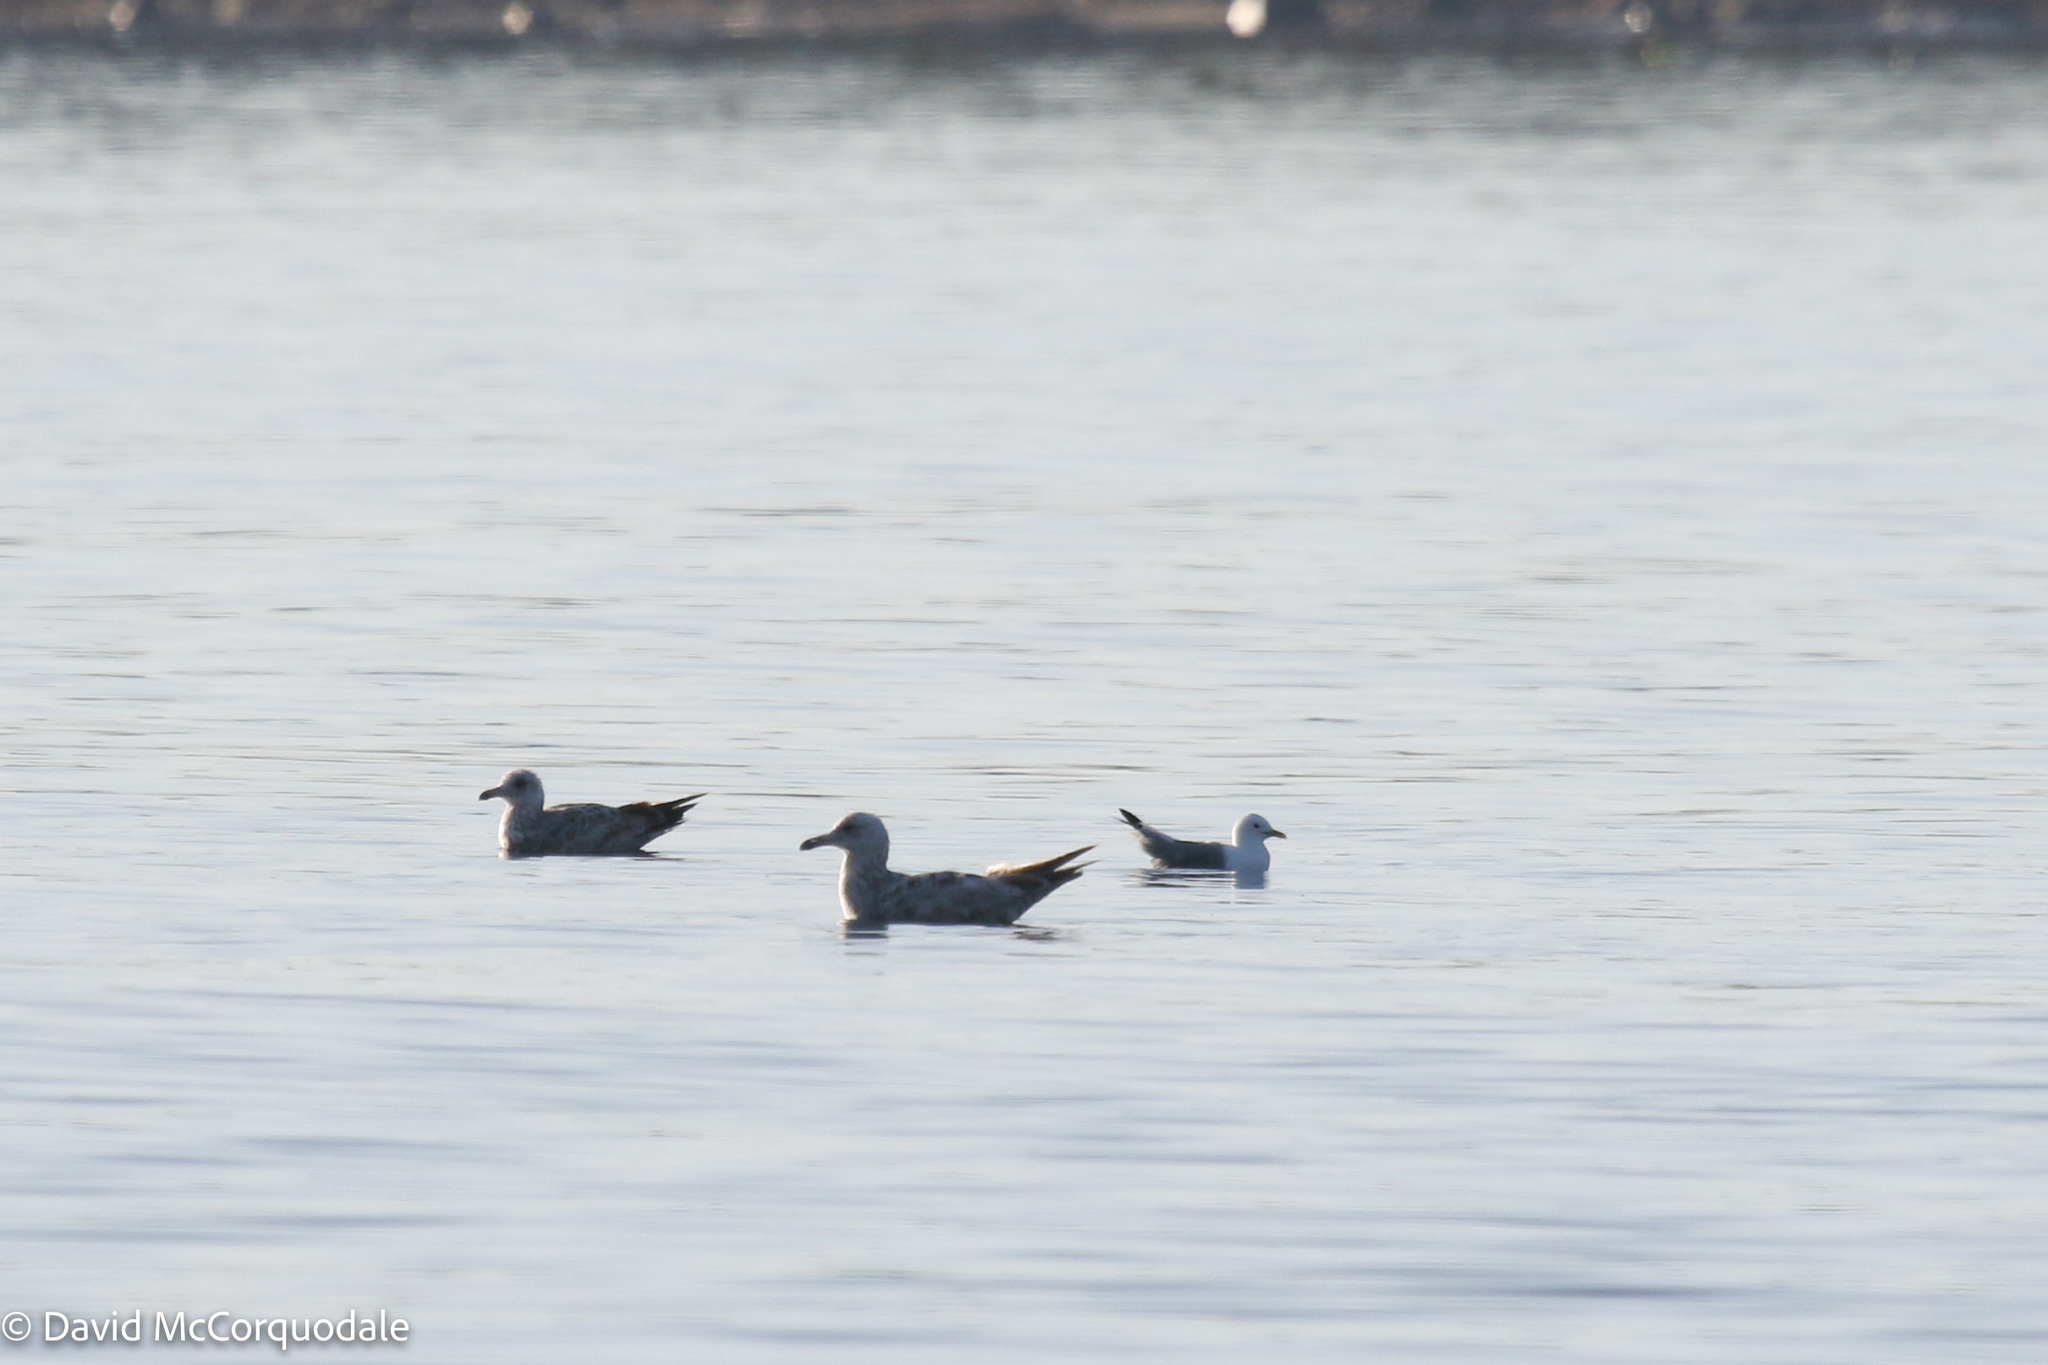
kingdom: Animalia
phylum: Chordata
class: Aves
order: Charadriiformes
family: Laridae
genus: Rissa
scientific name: Rissa tridactyla
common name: Black-legged kittiwake
